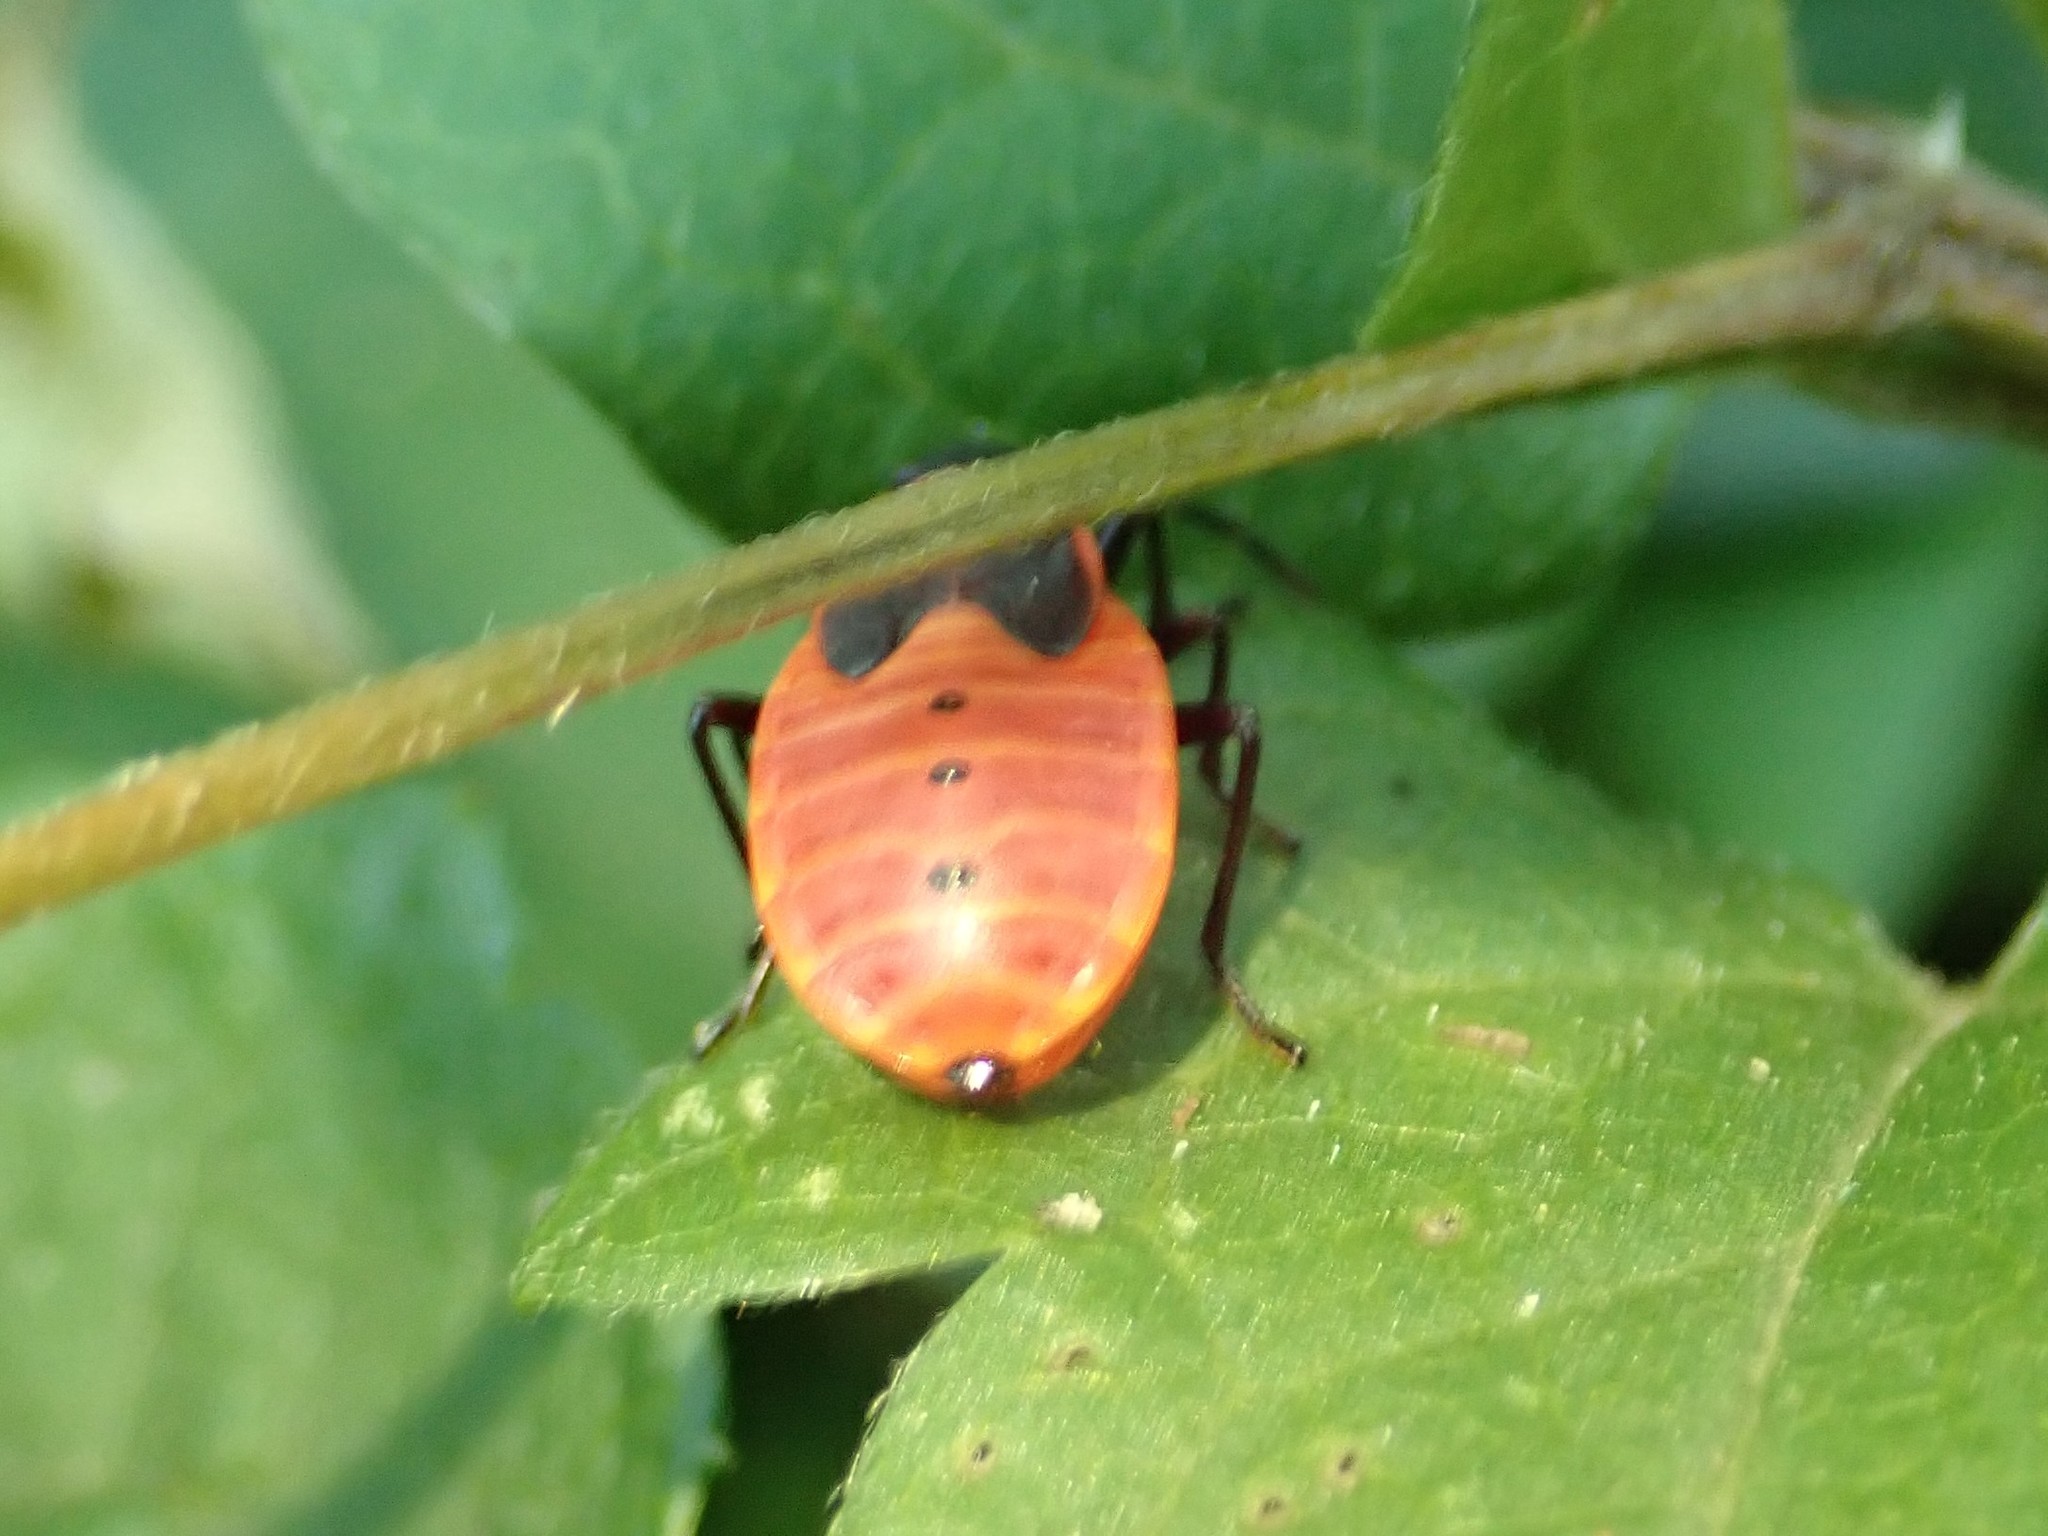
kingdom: Animalia
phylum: Arthropoda
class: Insecta
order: Hemiptera
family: Pyrrhocoridae
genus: Pyrrhocoris
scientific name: Pyrrhocoris apterus
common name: Firebug
